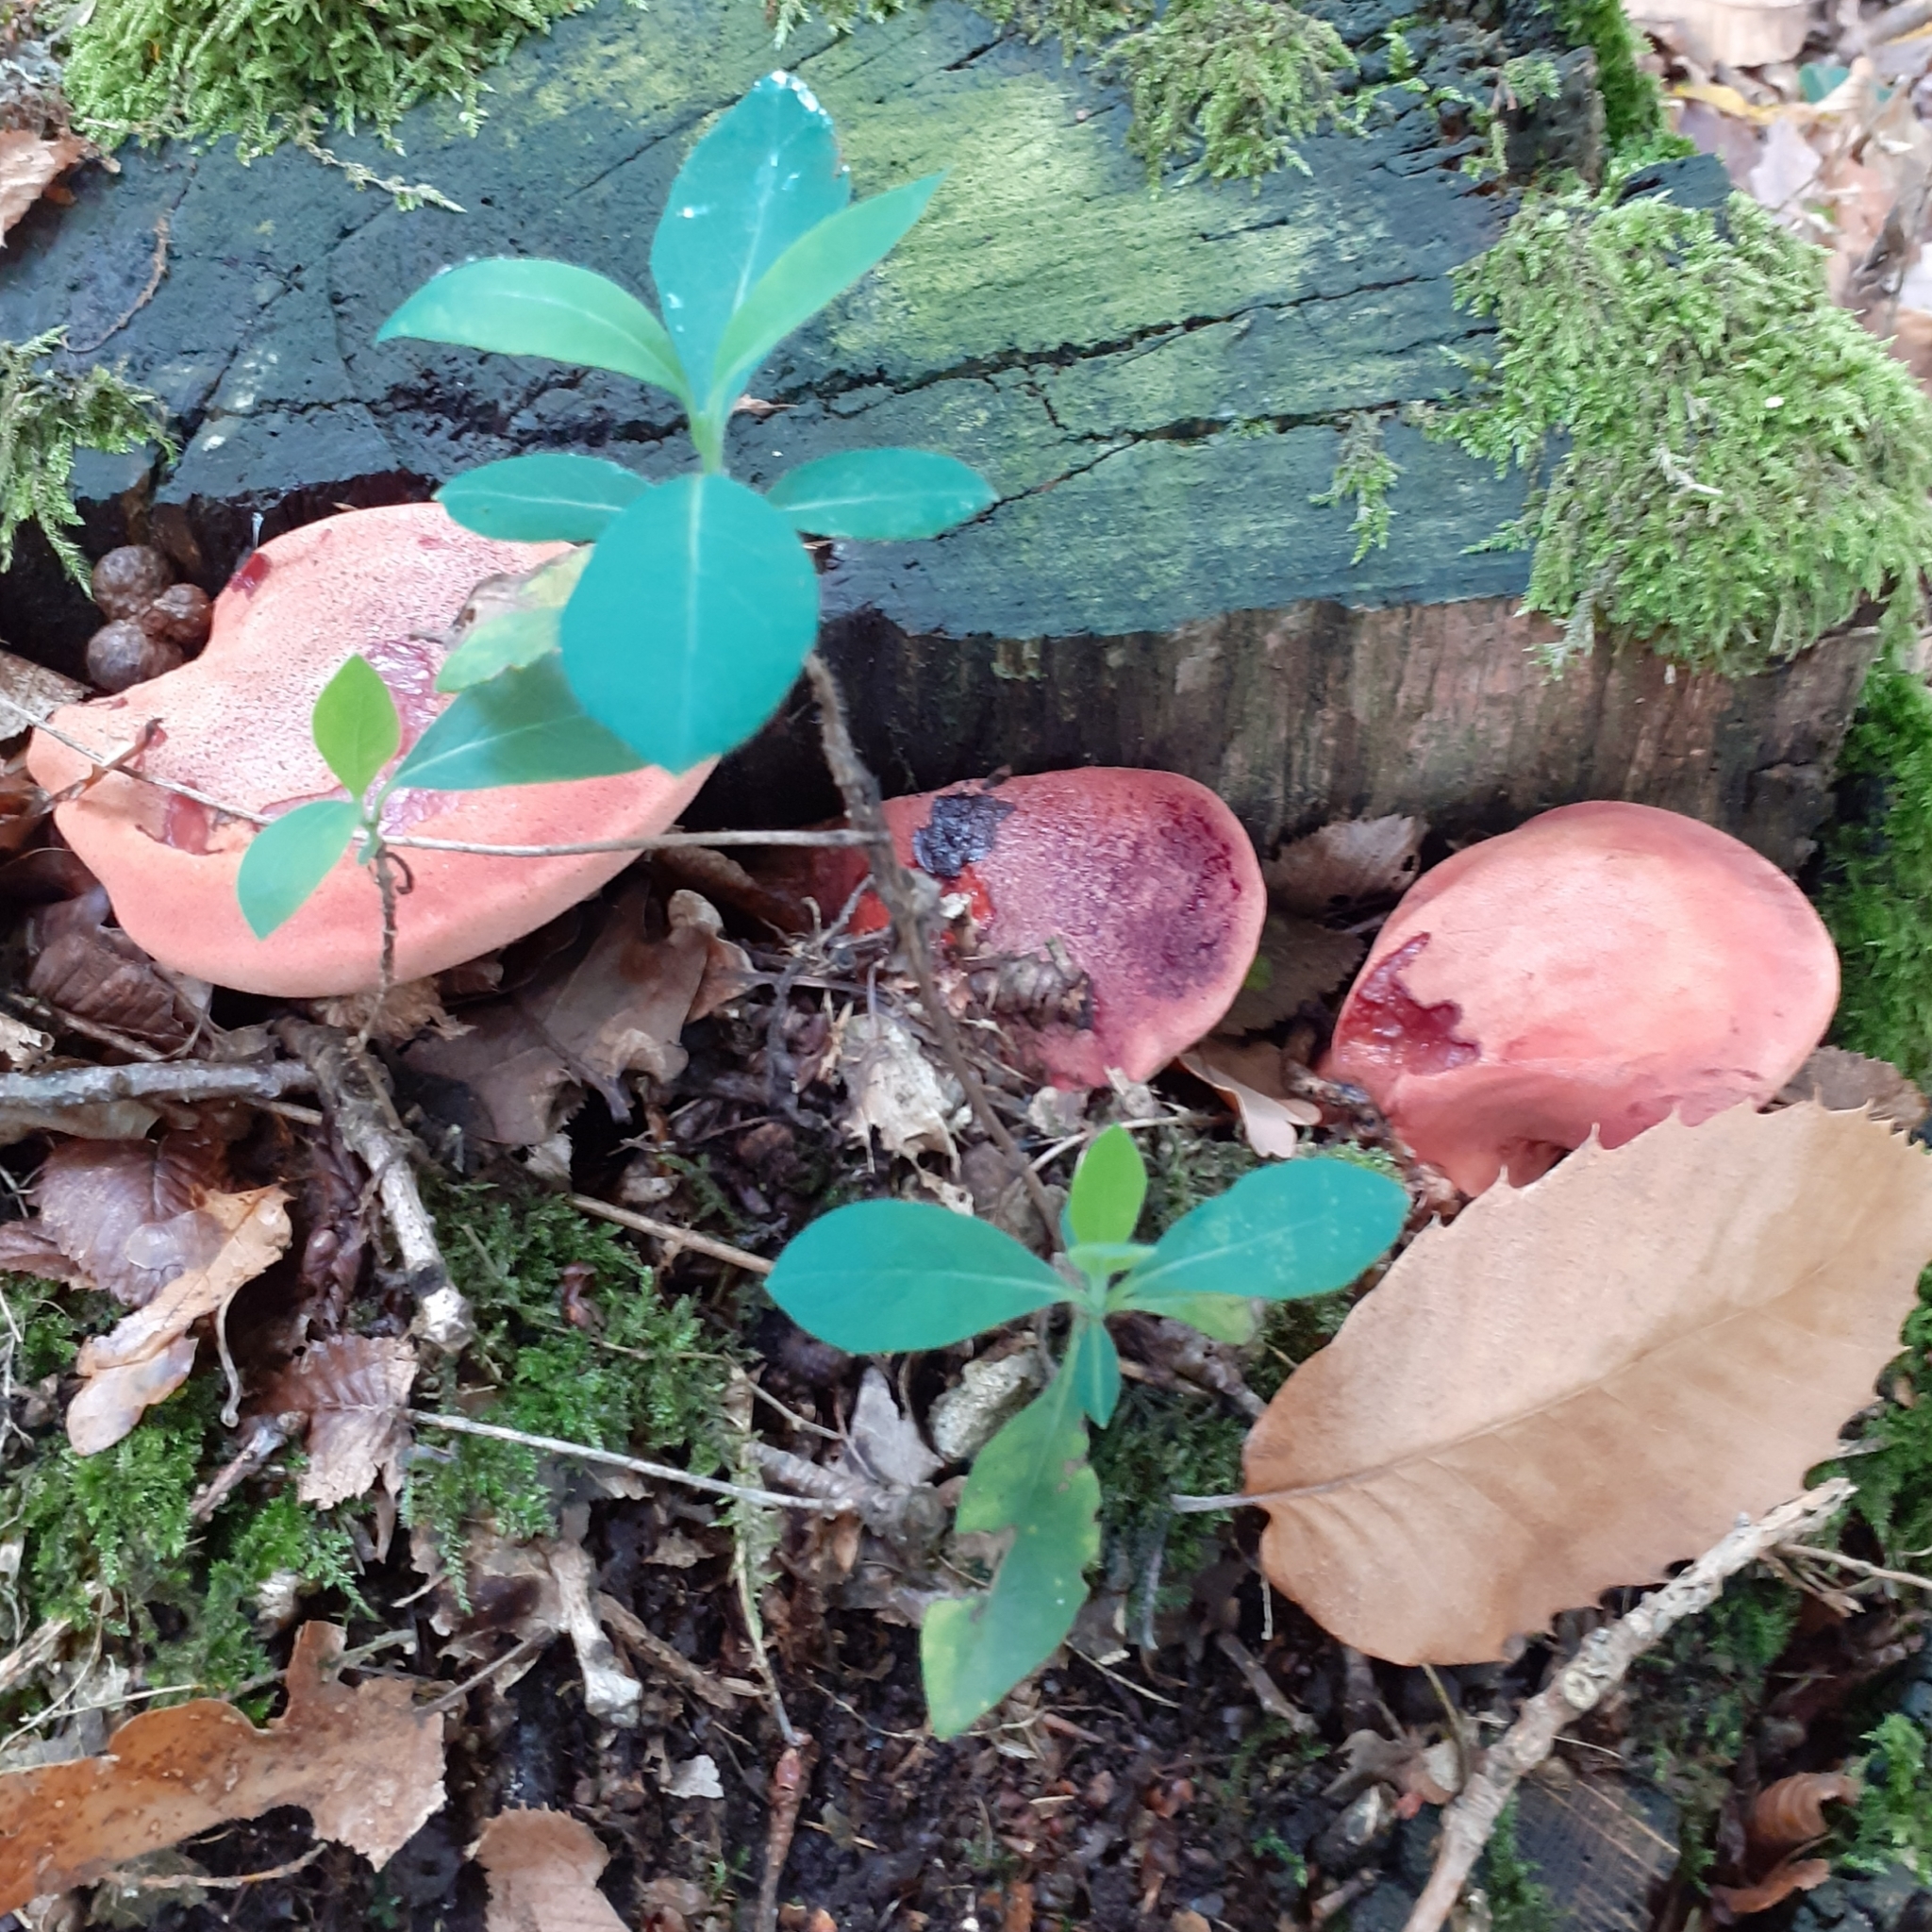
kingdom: Fungi
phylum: Basidiomycota
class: Agaricomycetes
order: Agaricales
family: Fistulinaceae
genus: Fistulina
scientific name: Fistulina hepatica
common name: Beef-steak fungus
